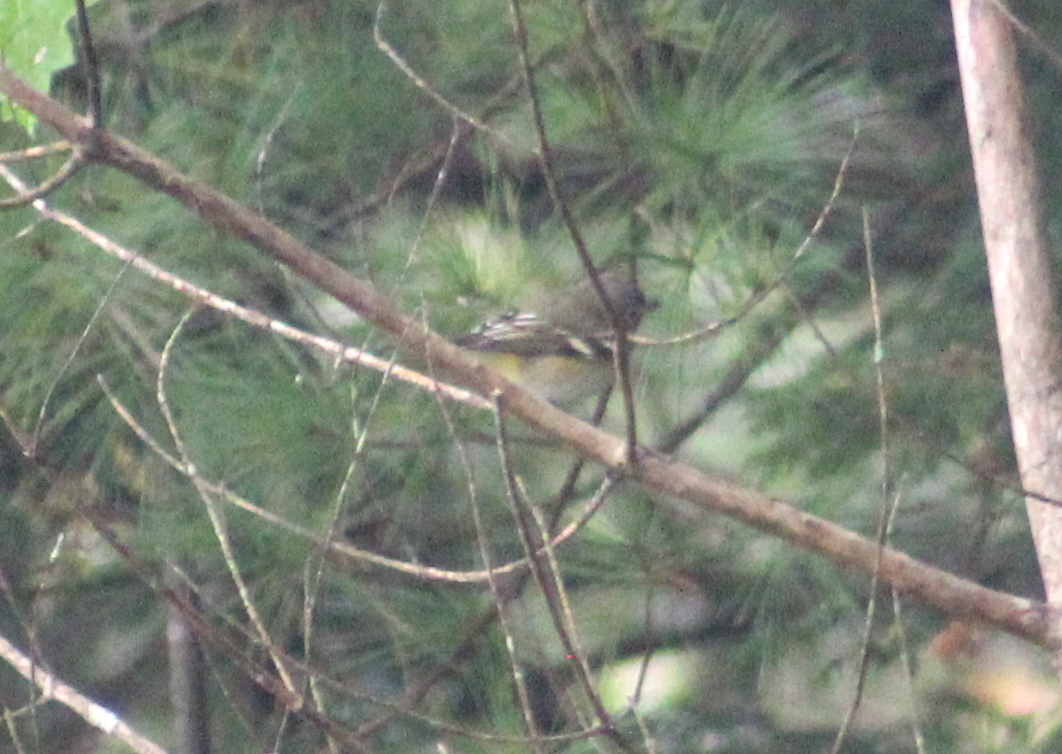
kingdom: Animalia
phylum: Chordata
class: Aves
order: Passeriformes
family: Vireonidae
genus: Vireo
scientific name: Vireo solitarius
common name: Blue-headed vireo
